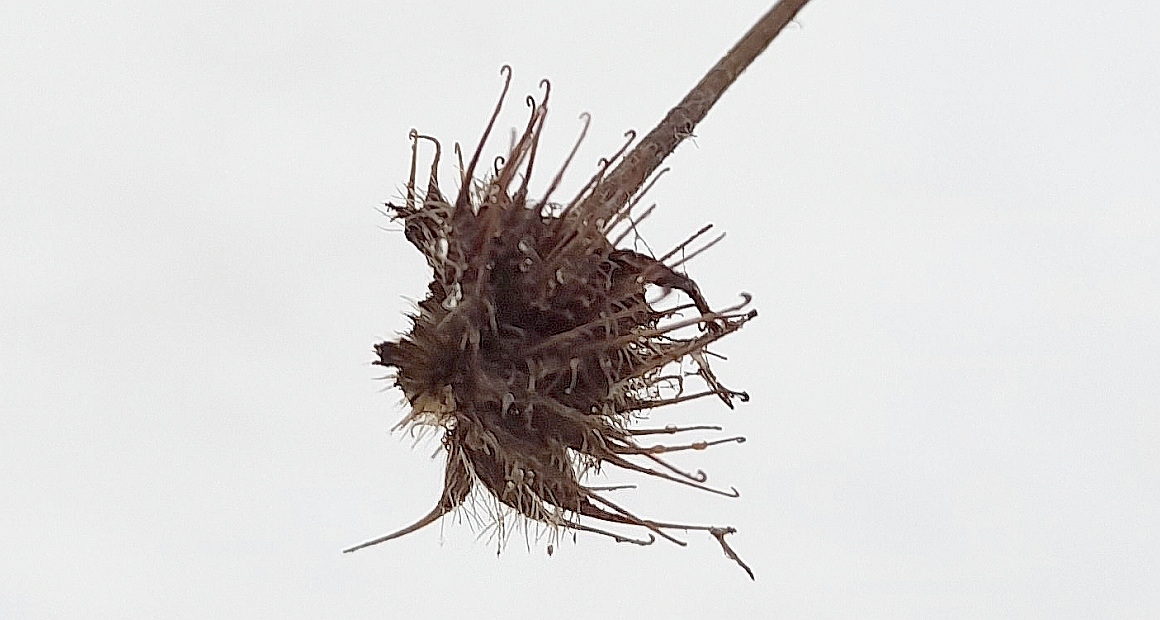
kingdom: Plantae
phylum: Tracheophyta
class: Magnoliopsida
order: Rosales
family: Rosaceae
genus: Geum
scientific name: Geum urbanum
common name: Wood avens
